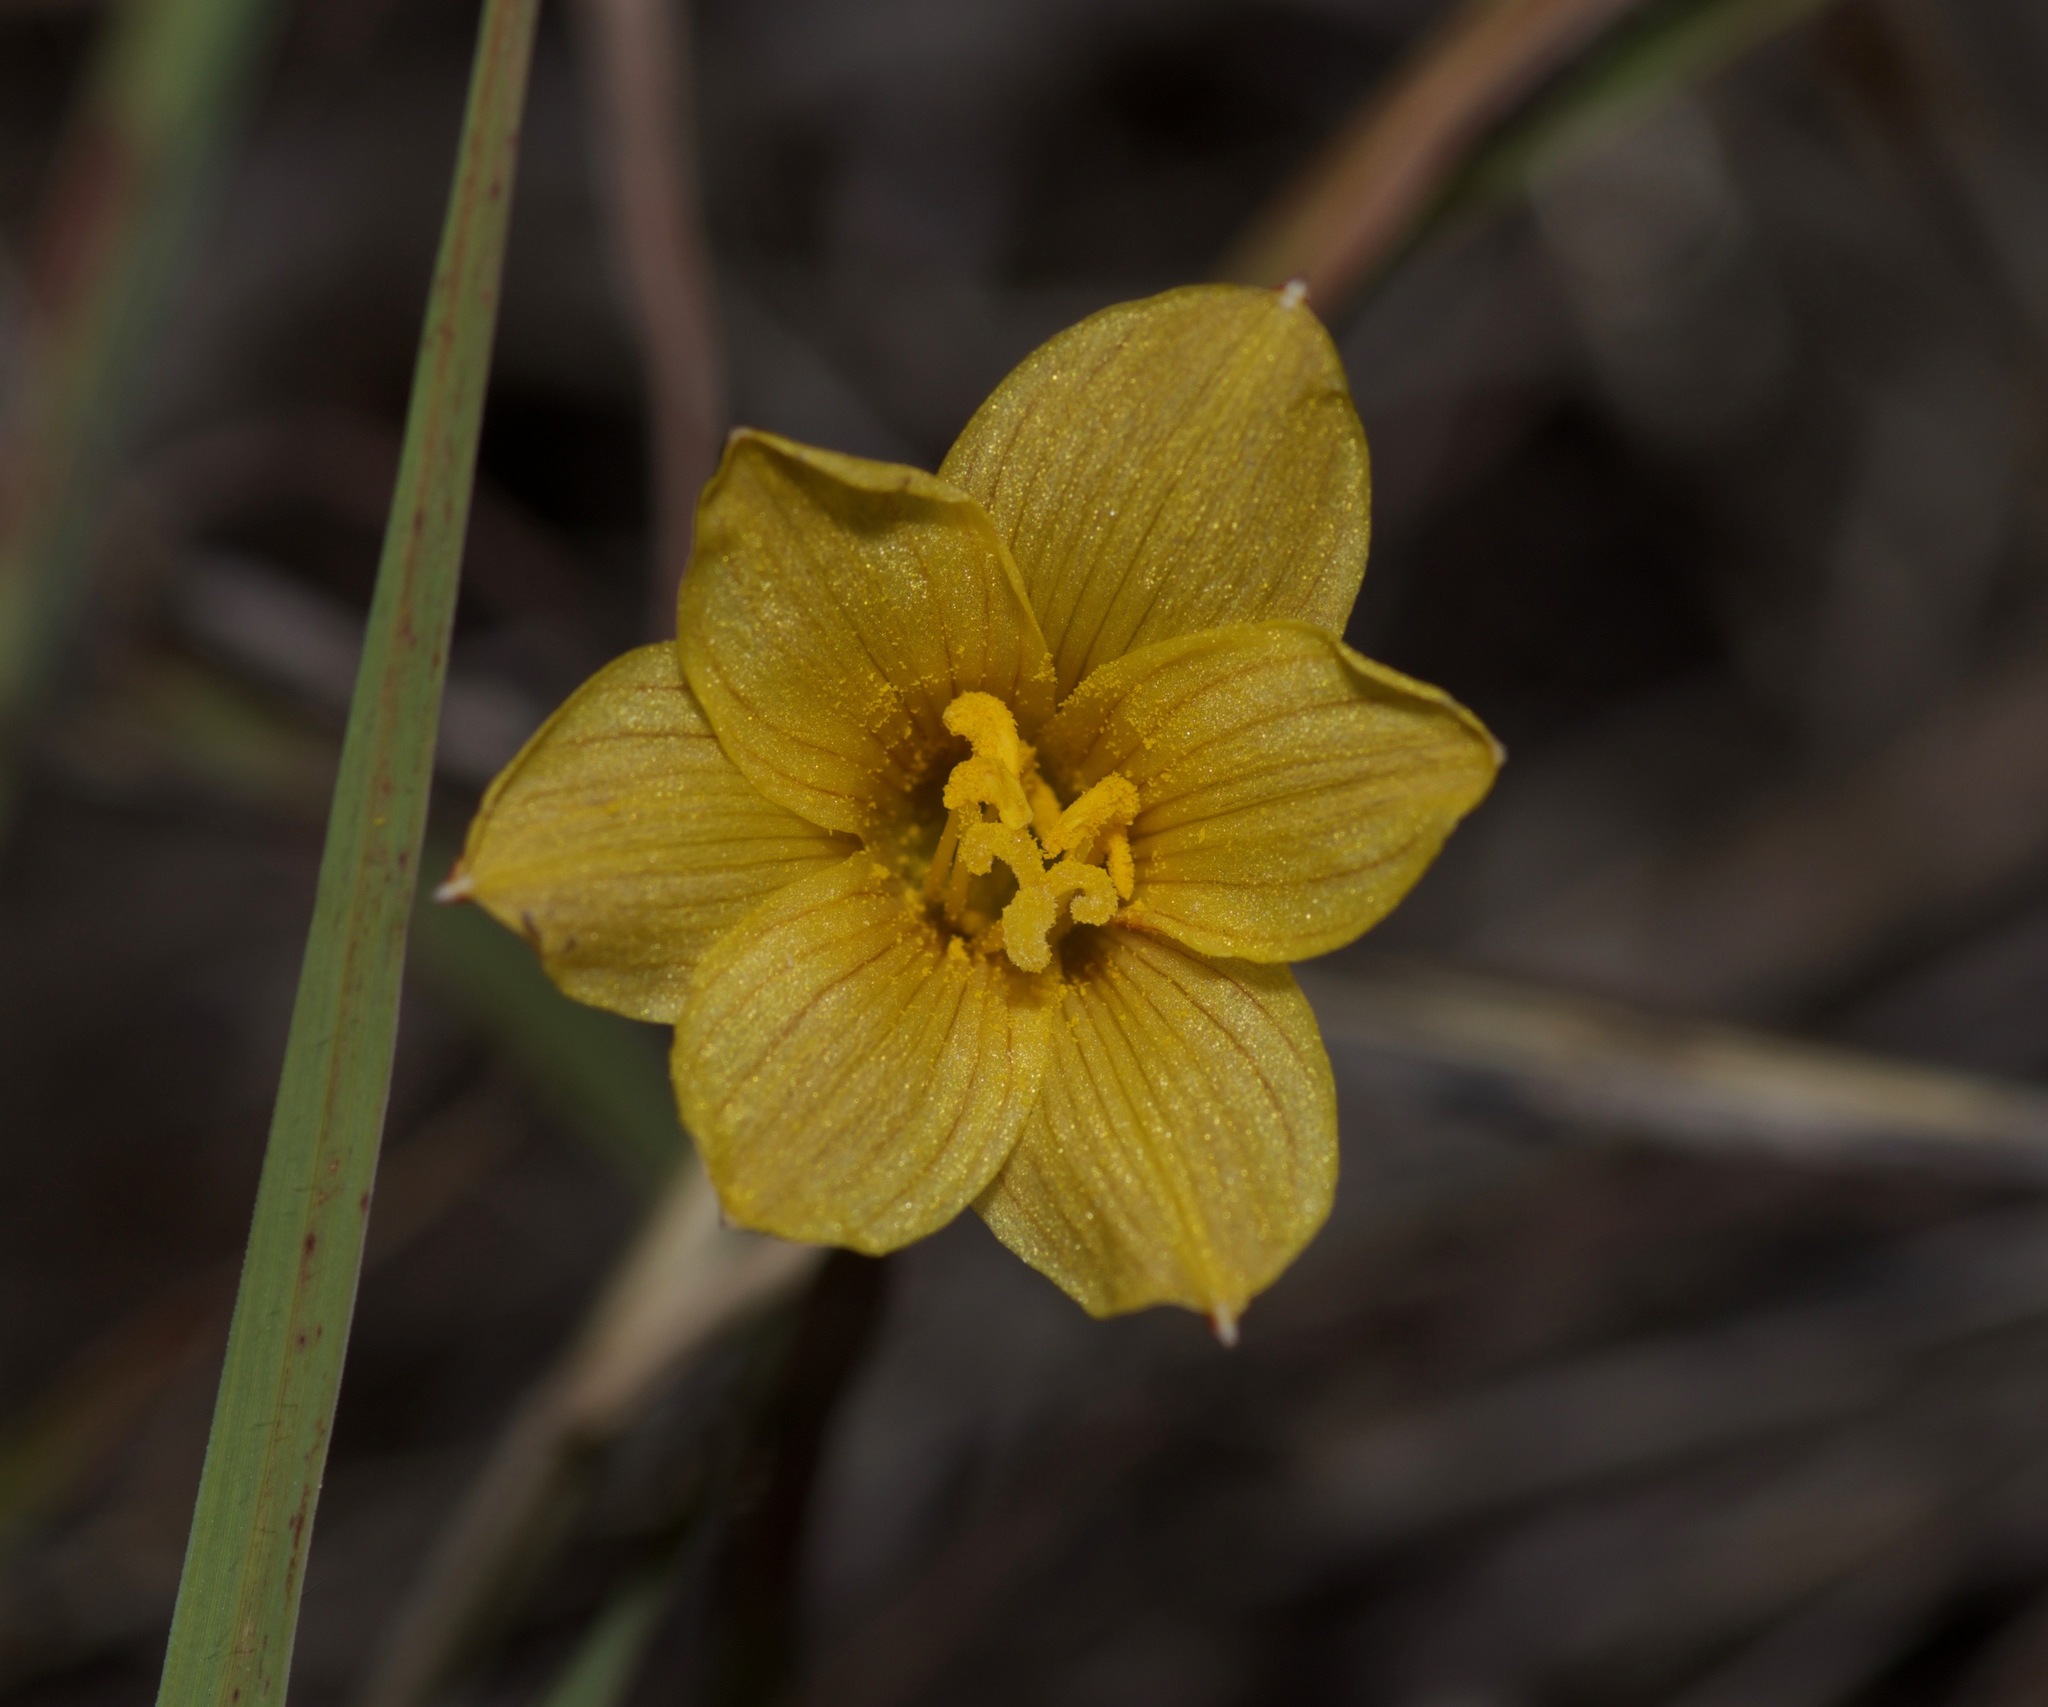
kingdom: Plantae
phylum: Tracheophyta
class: Liliopsida
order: Asparagales
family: Amaryllidaceae
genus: Zephyranthes
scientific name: Zephyranthes tubispatha
